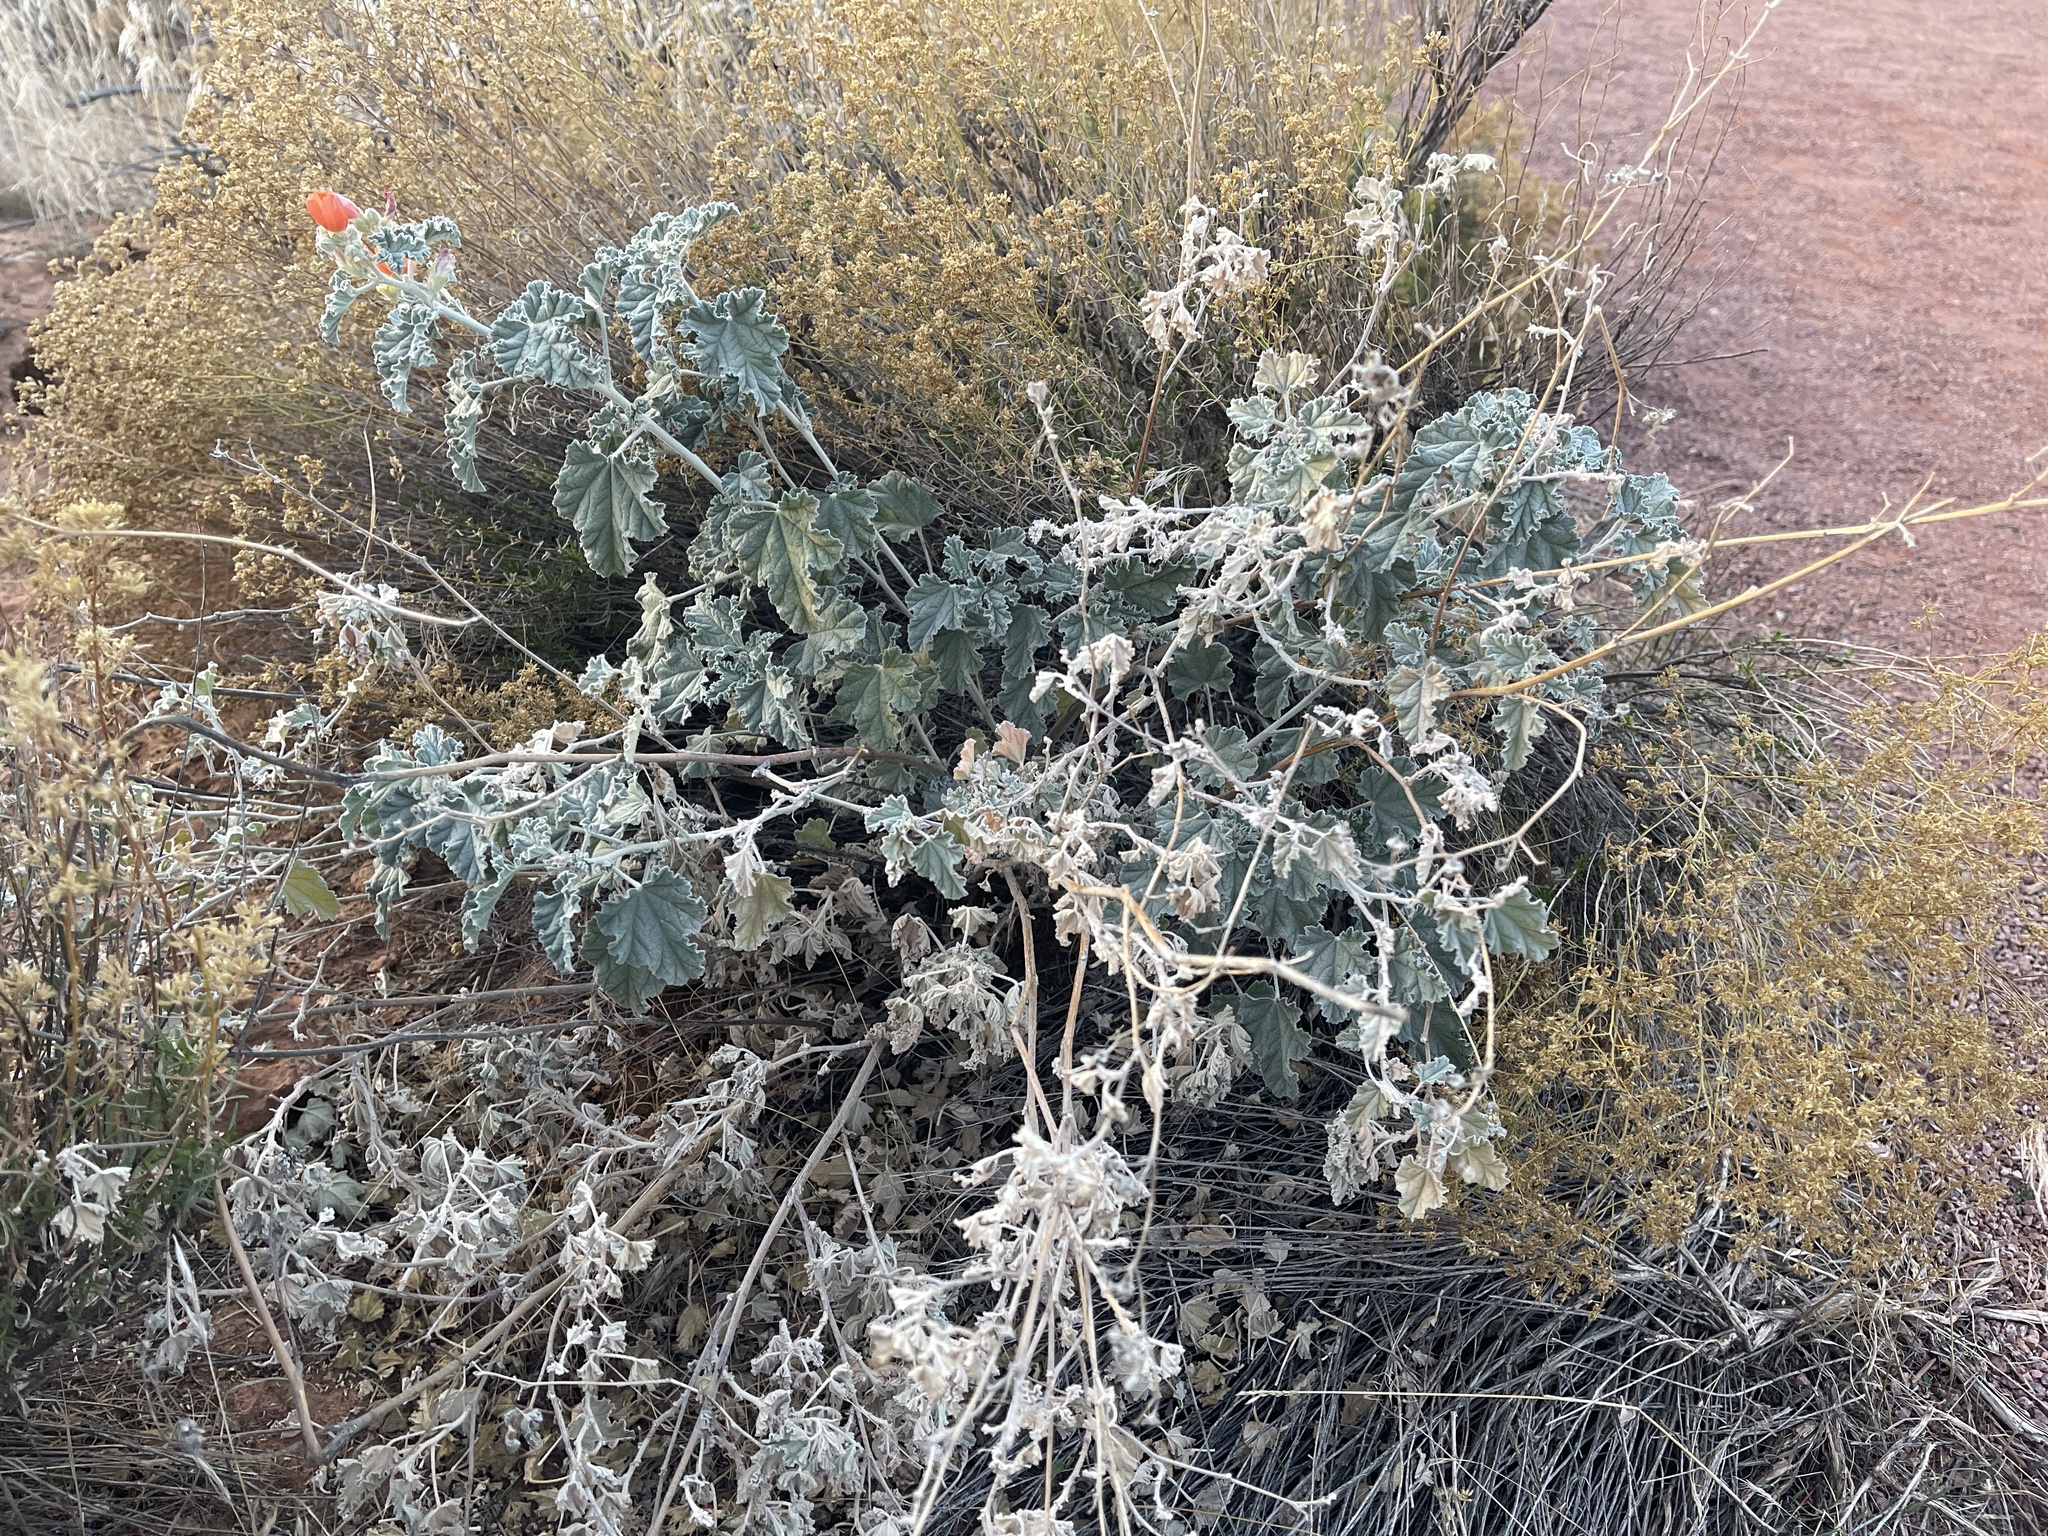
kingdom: Plantae
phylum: Tracheophyta
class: Magnoliopsida
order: Malvales
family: Malvaceae
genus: Sphaeralcea
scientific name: Sphaeralcea ambigua
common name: Apricot globe-mallow
